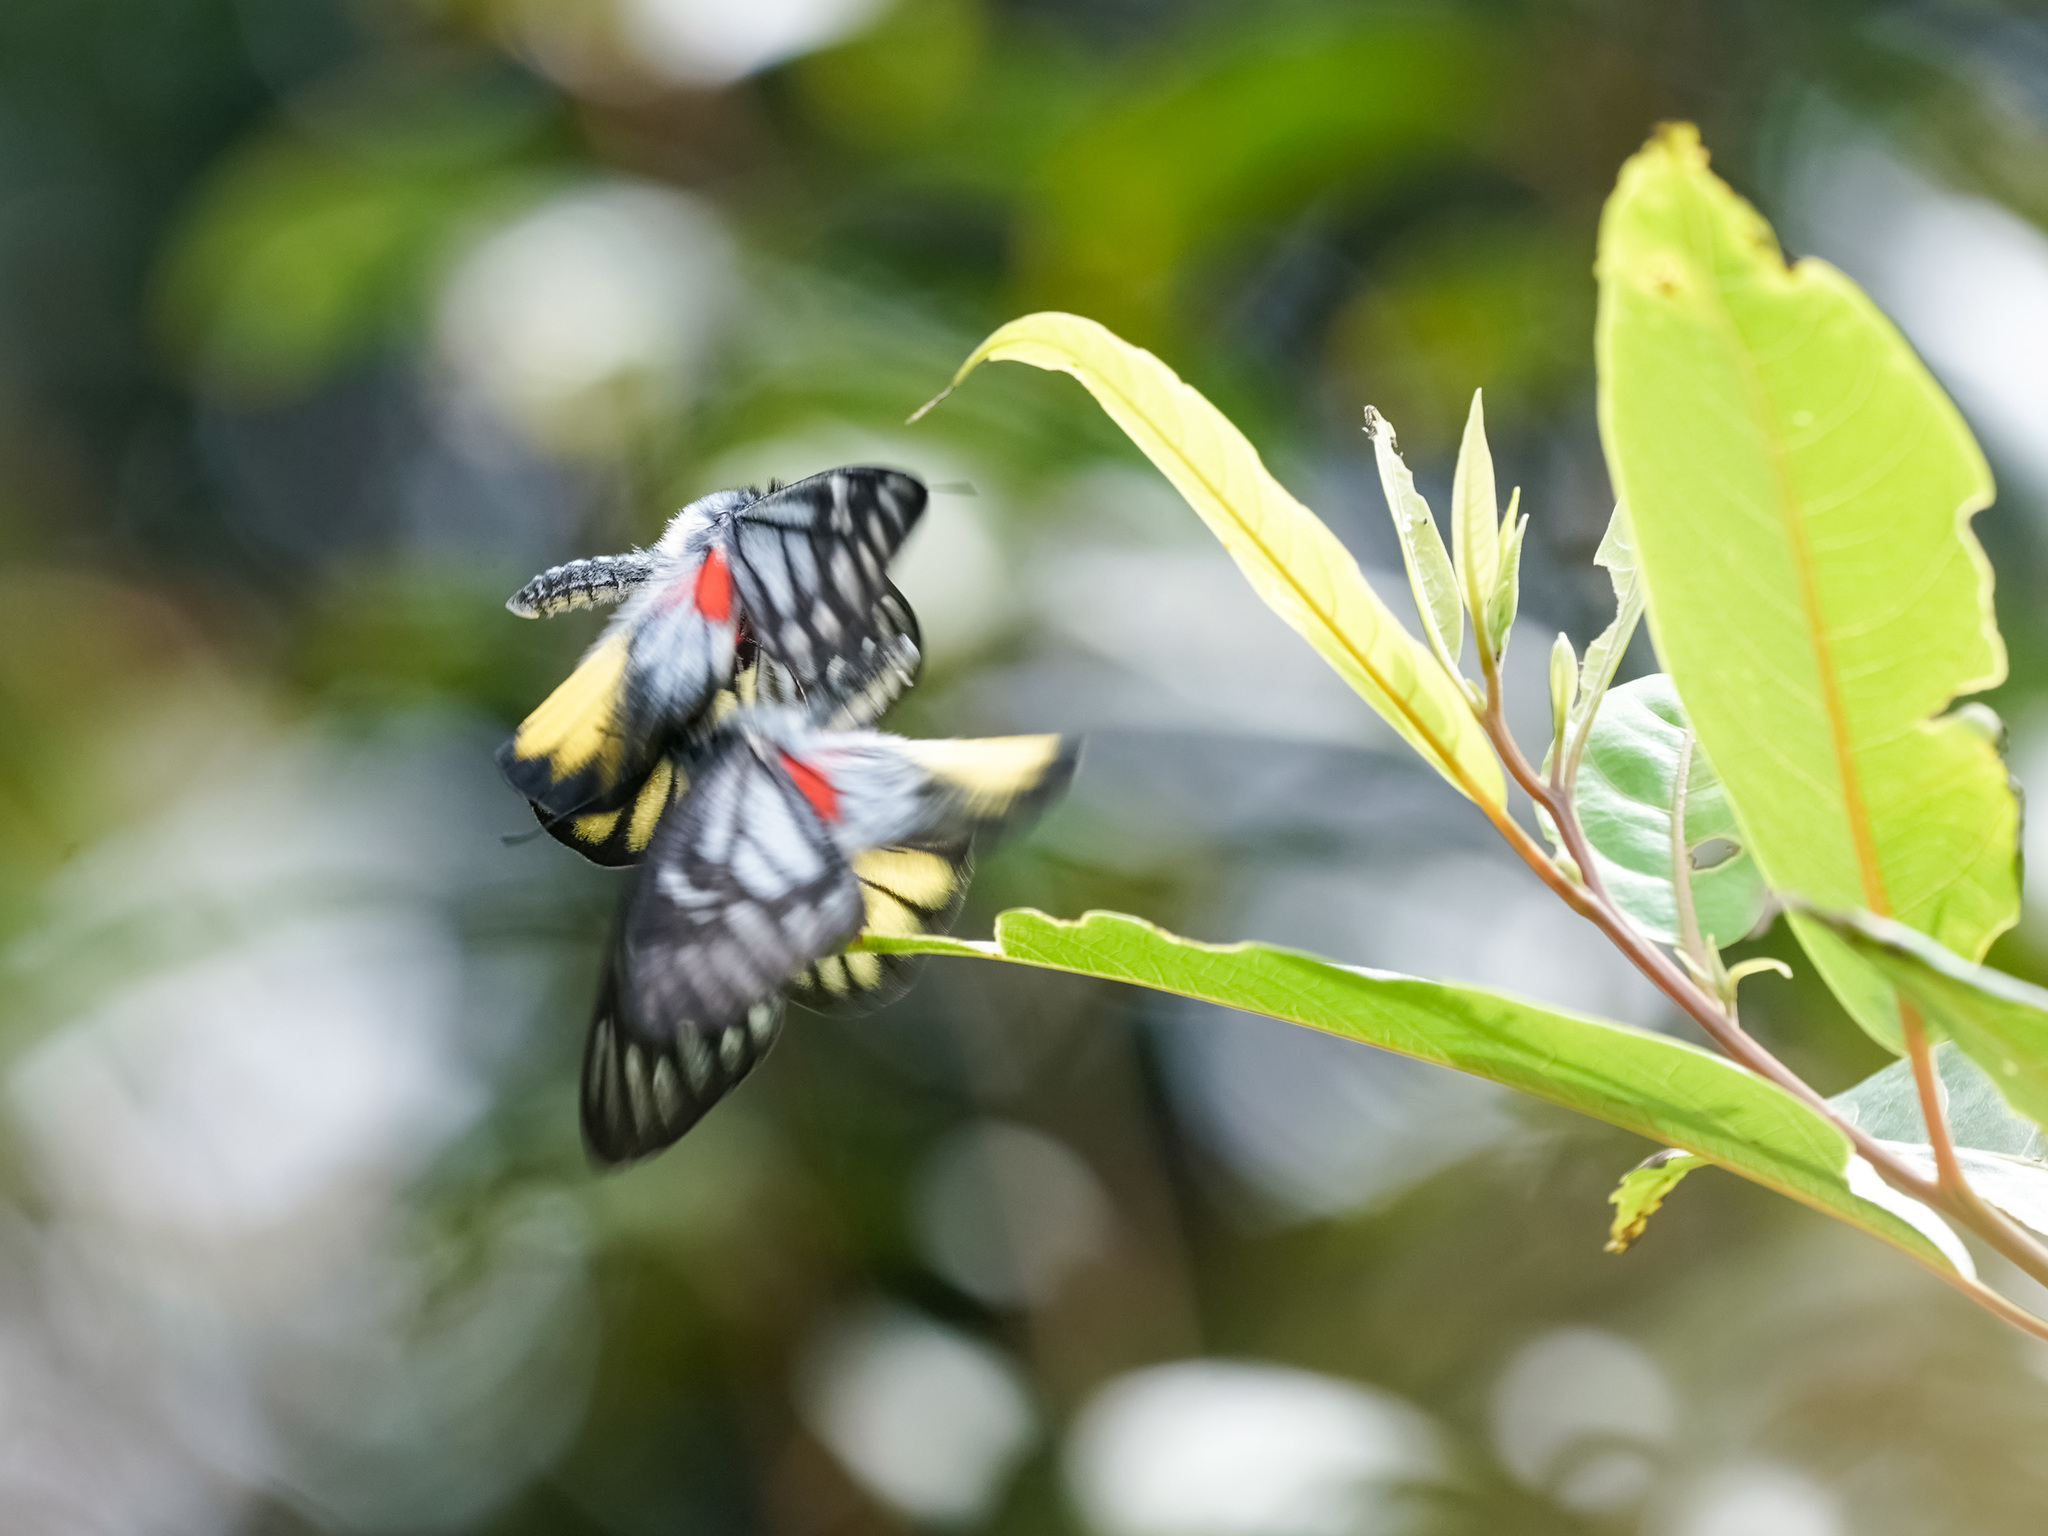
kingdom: Animalia
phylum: Arthropoda
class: Insecta
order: Lepidoptera
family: Pieridae
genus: Delias
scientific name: Delias ninus
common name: Malayan jezebel
